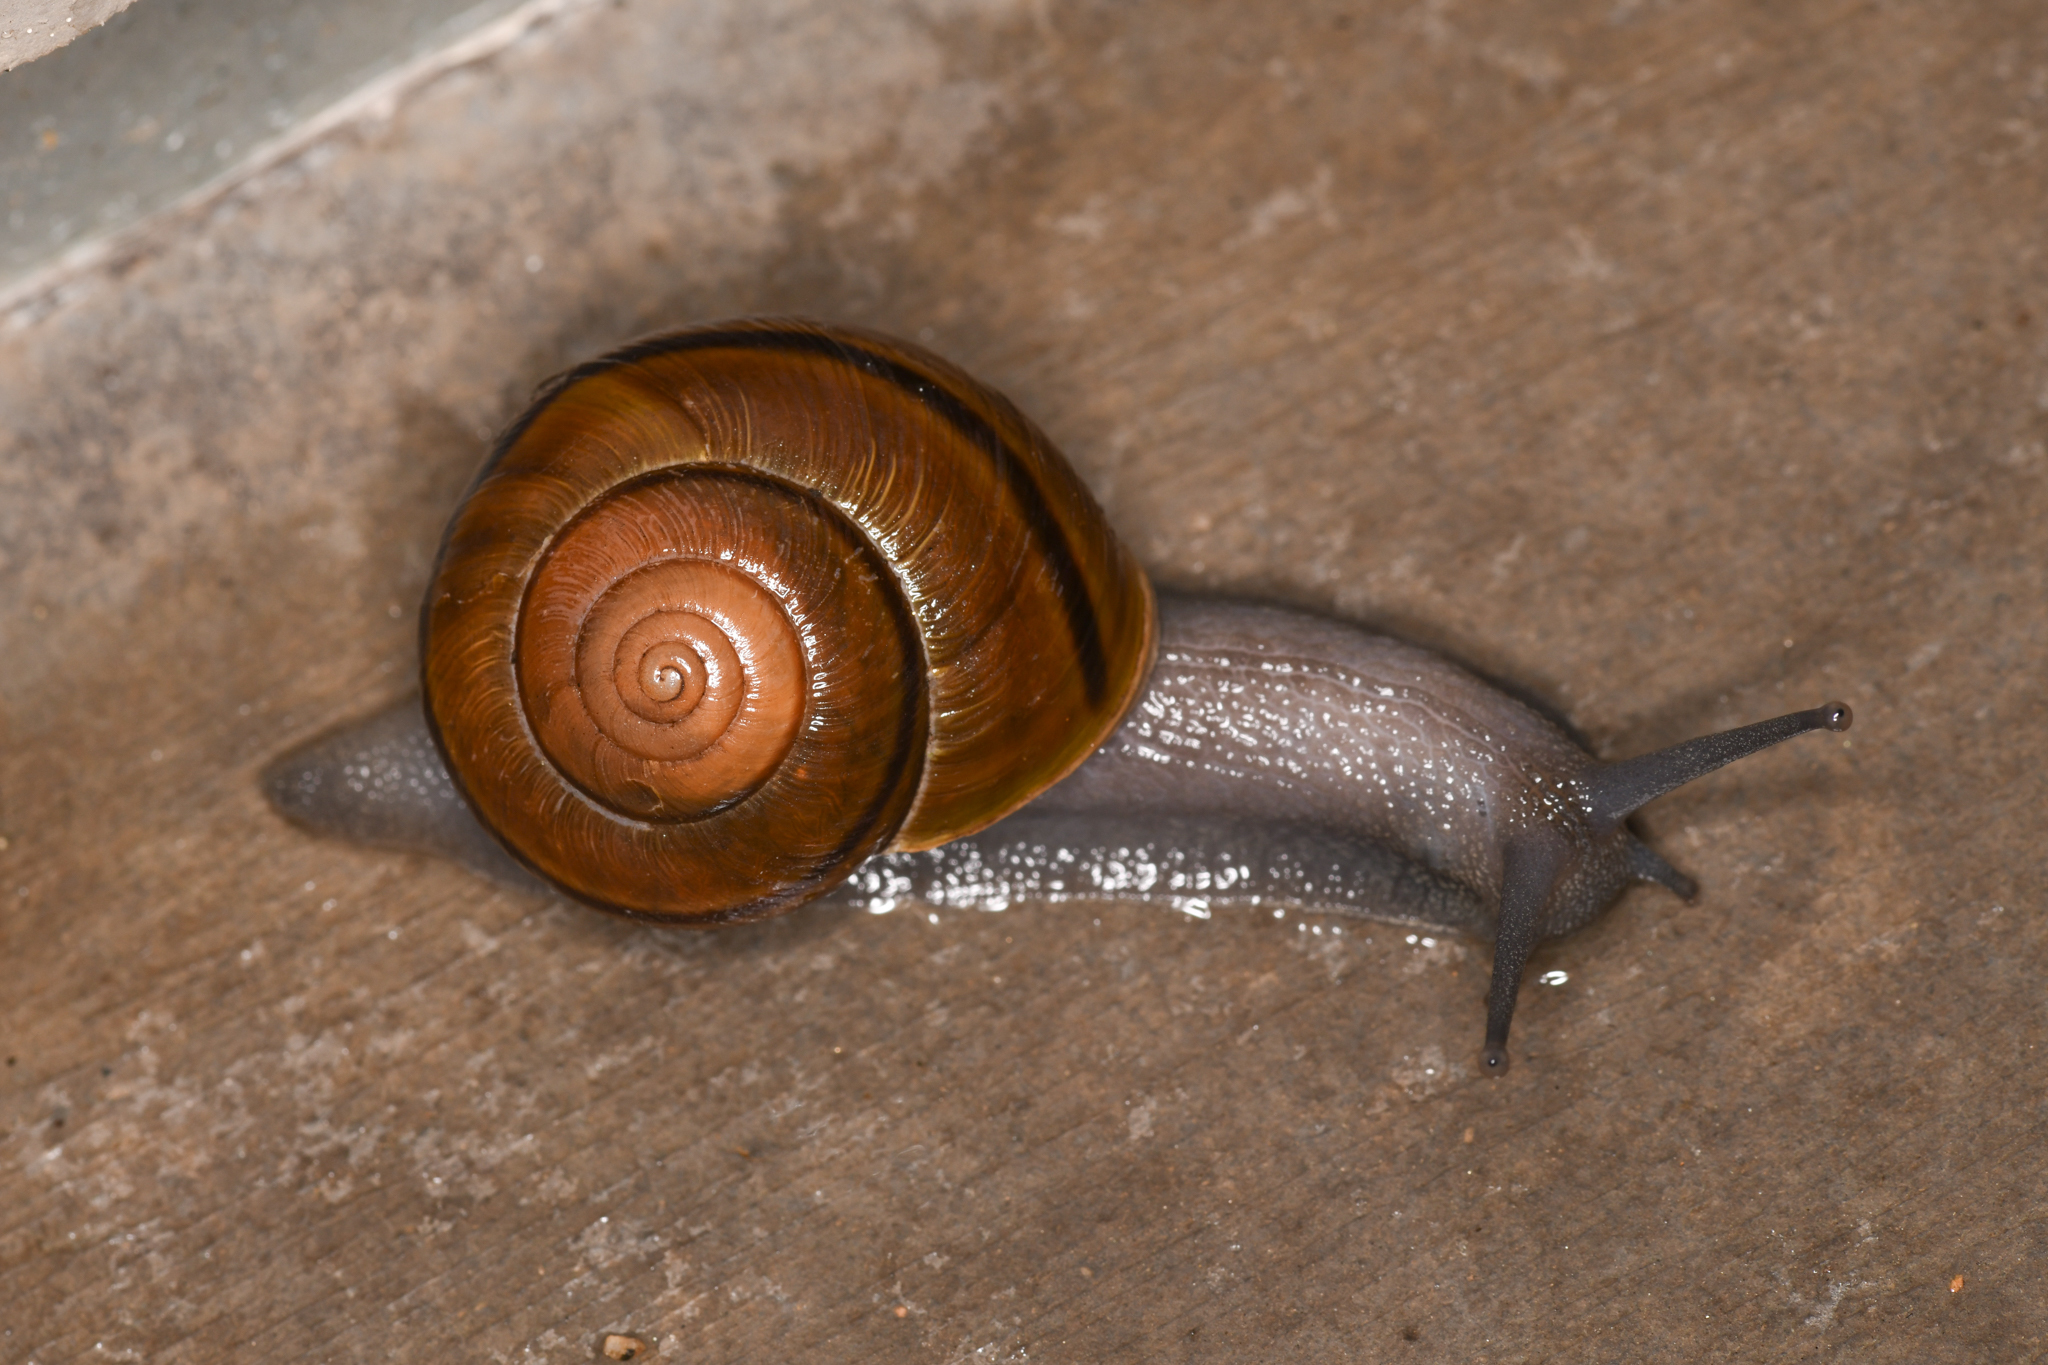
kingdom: Animalia
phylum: Mollusca
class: Gastropoda
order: Stylommatophora
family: Xanthonychidae
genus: Helminthoglypta
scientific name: Helminthoglypta tudiculata
